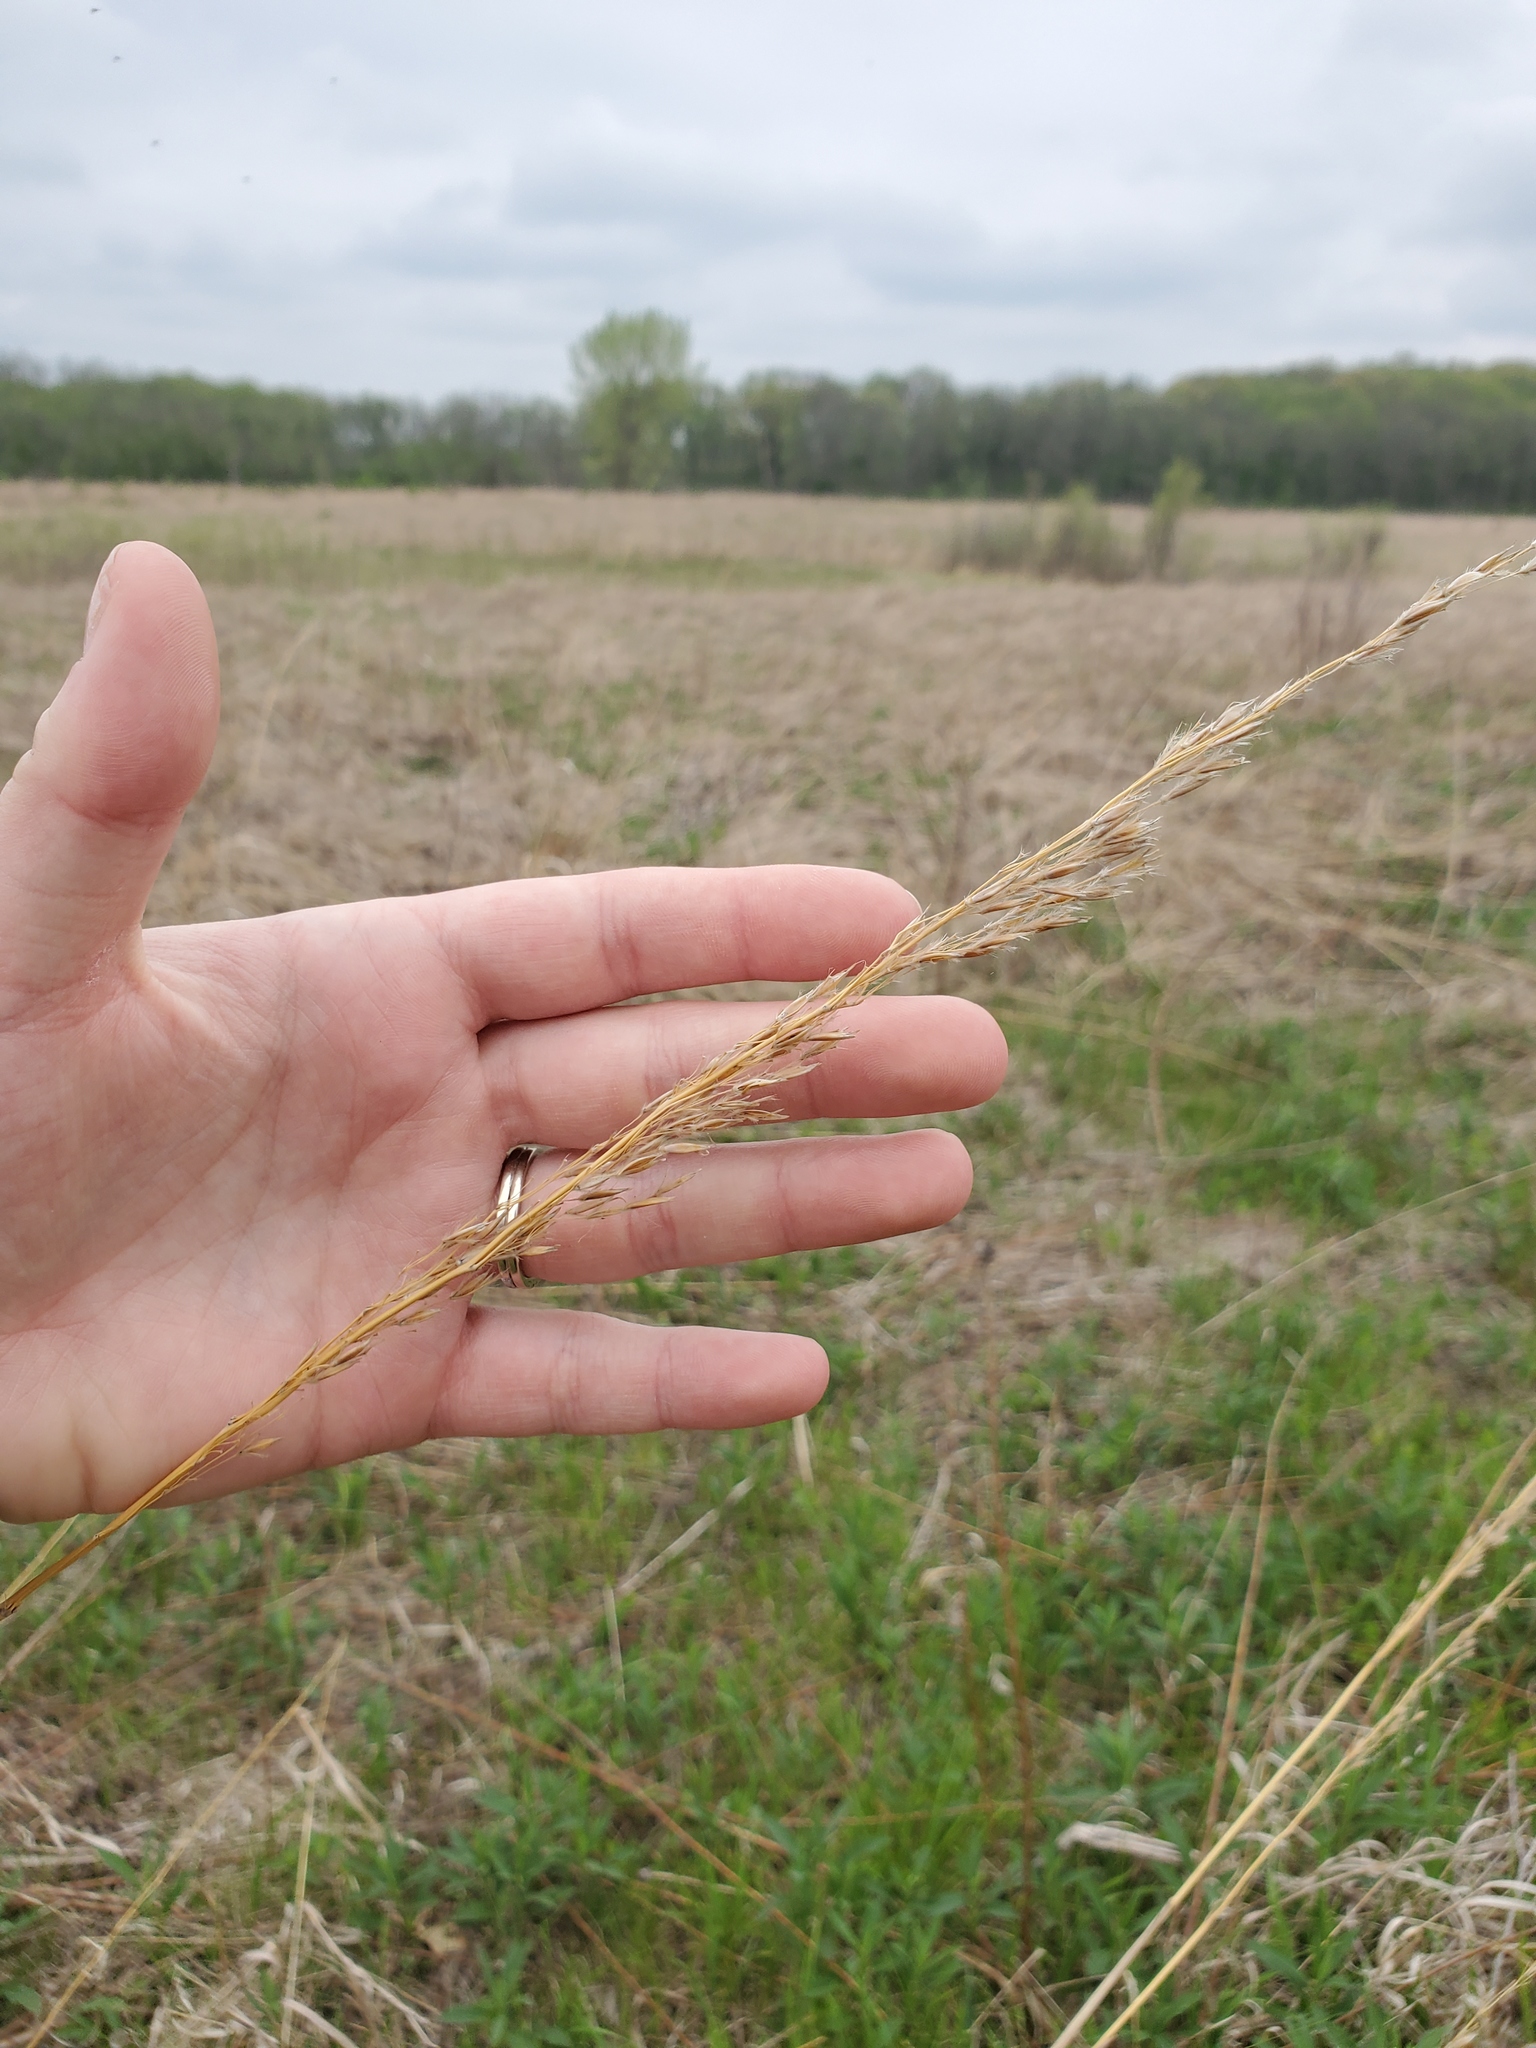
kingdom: Plantae
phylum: Tracheophyta
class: Liliopsida
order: Poales
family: Poaceae
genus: Sorghastrum
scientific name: Sorghastrum nutans
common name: Indian grass
